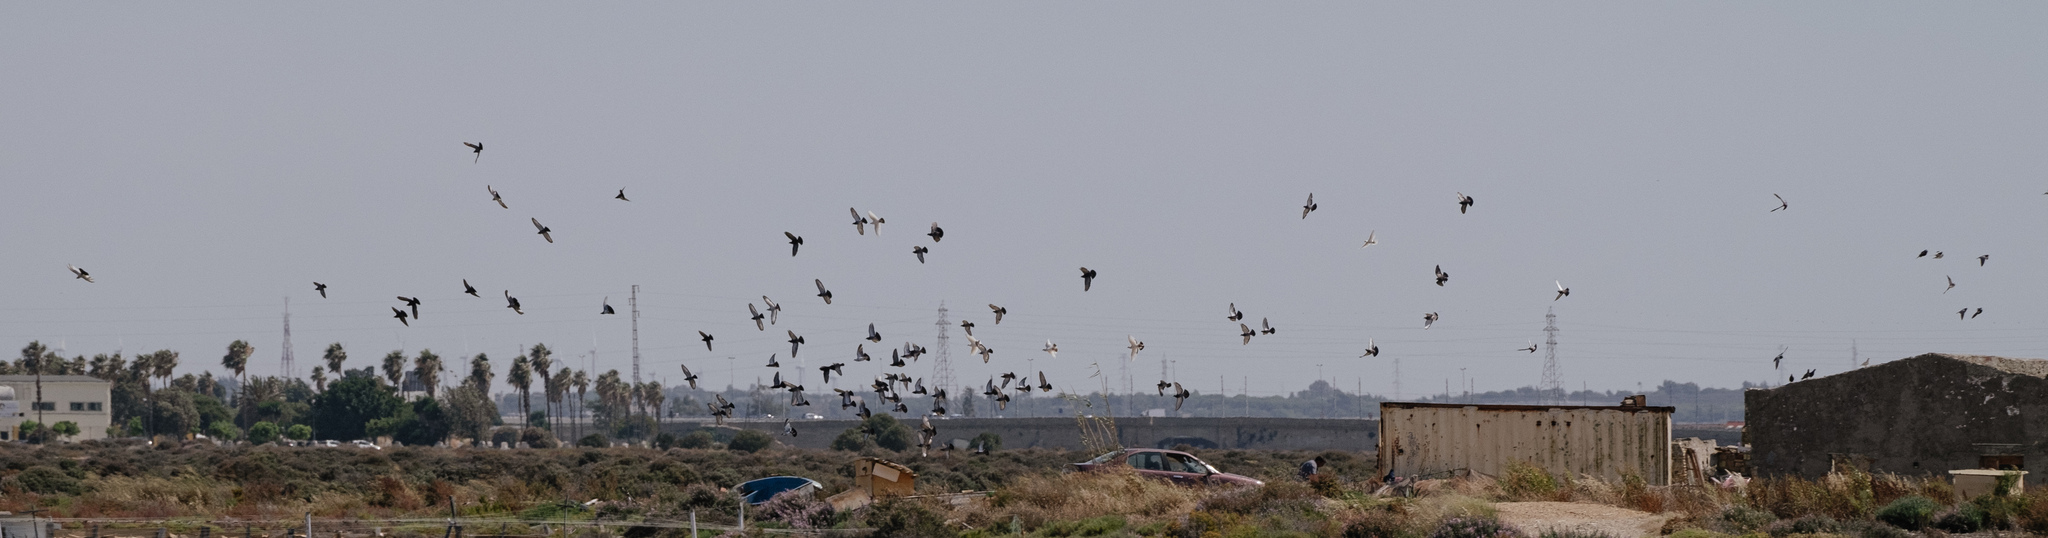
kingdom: Animalia
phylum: Chordata
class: Aves
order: Columbiformes
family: Columbidae
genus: Columba
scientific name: Columba livia
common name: Rock pigeon
